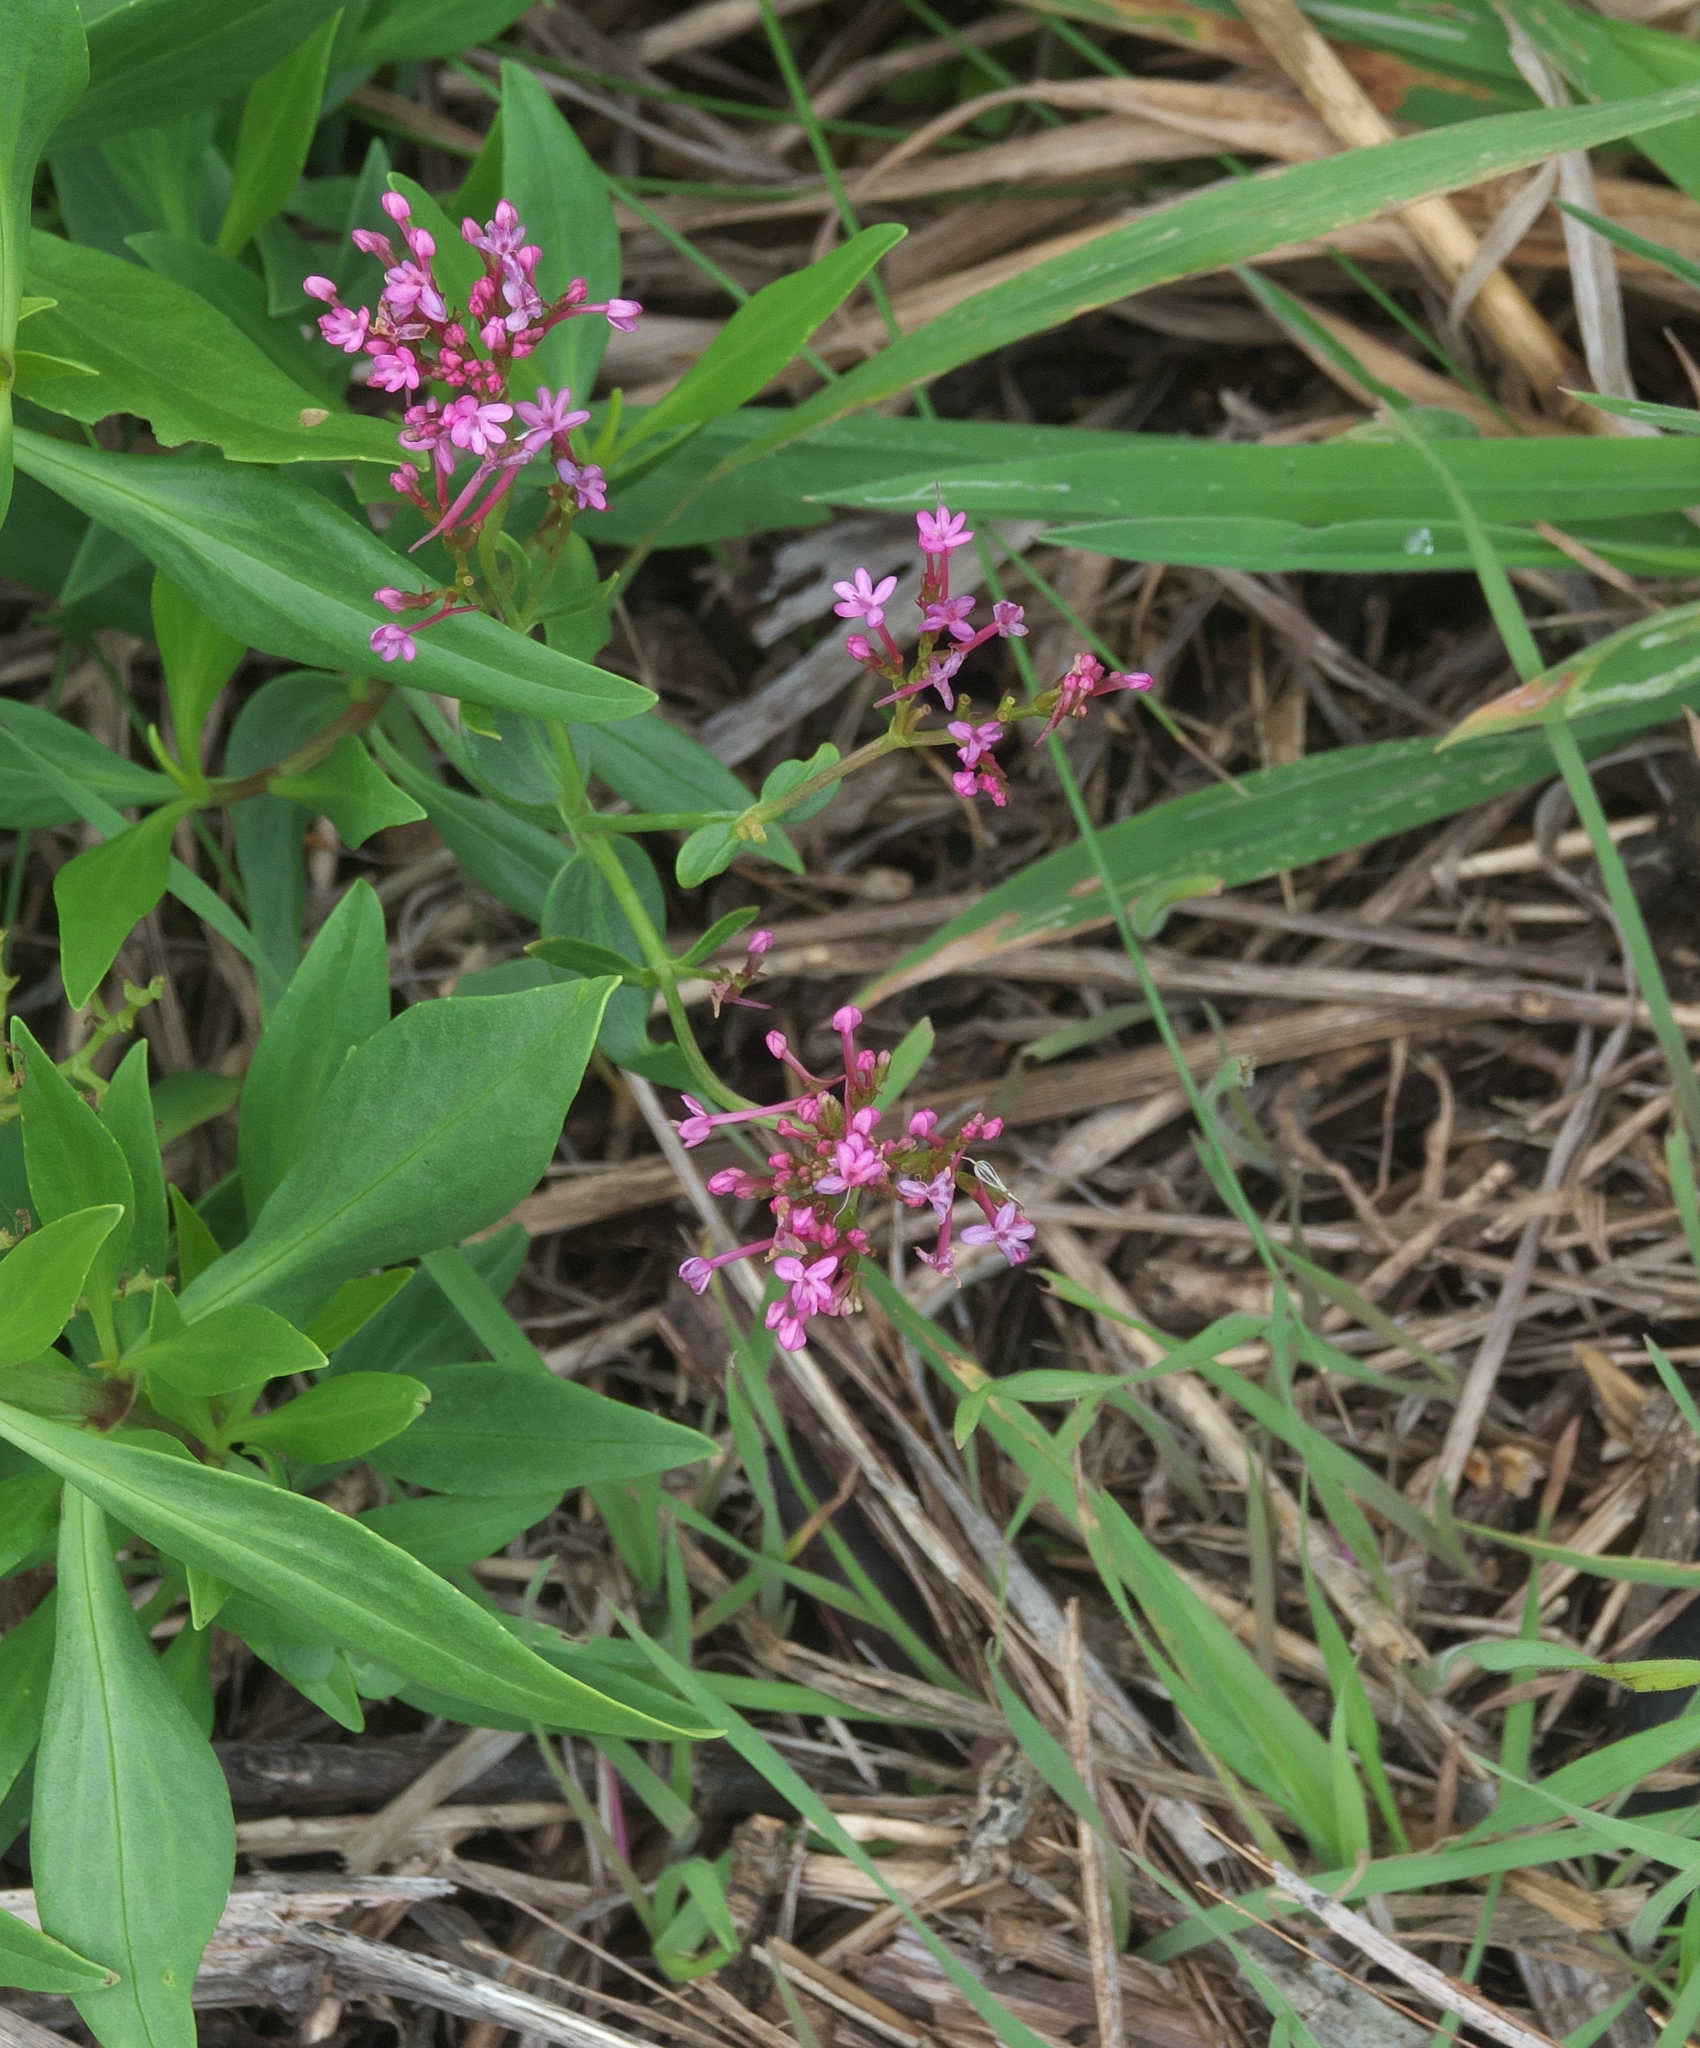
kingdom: Plantae
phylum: Tracheophyta
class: Magnoliopsida
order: Dipsacales
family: Caprifoliaceae
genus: Centranthus
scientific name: Centranthus ruber
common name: Red valerian
